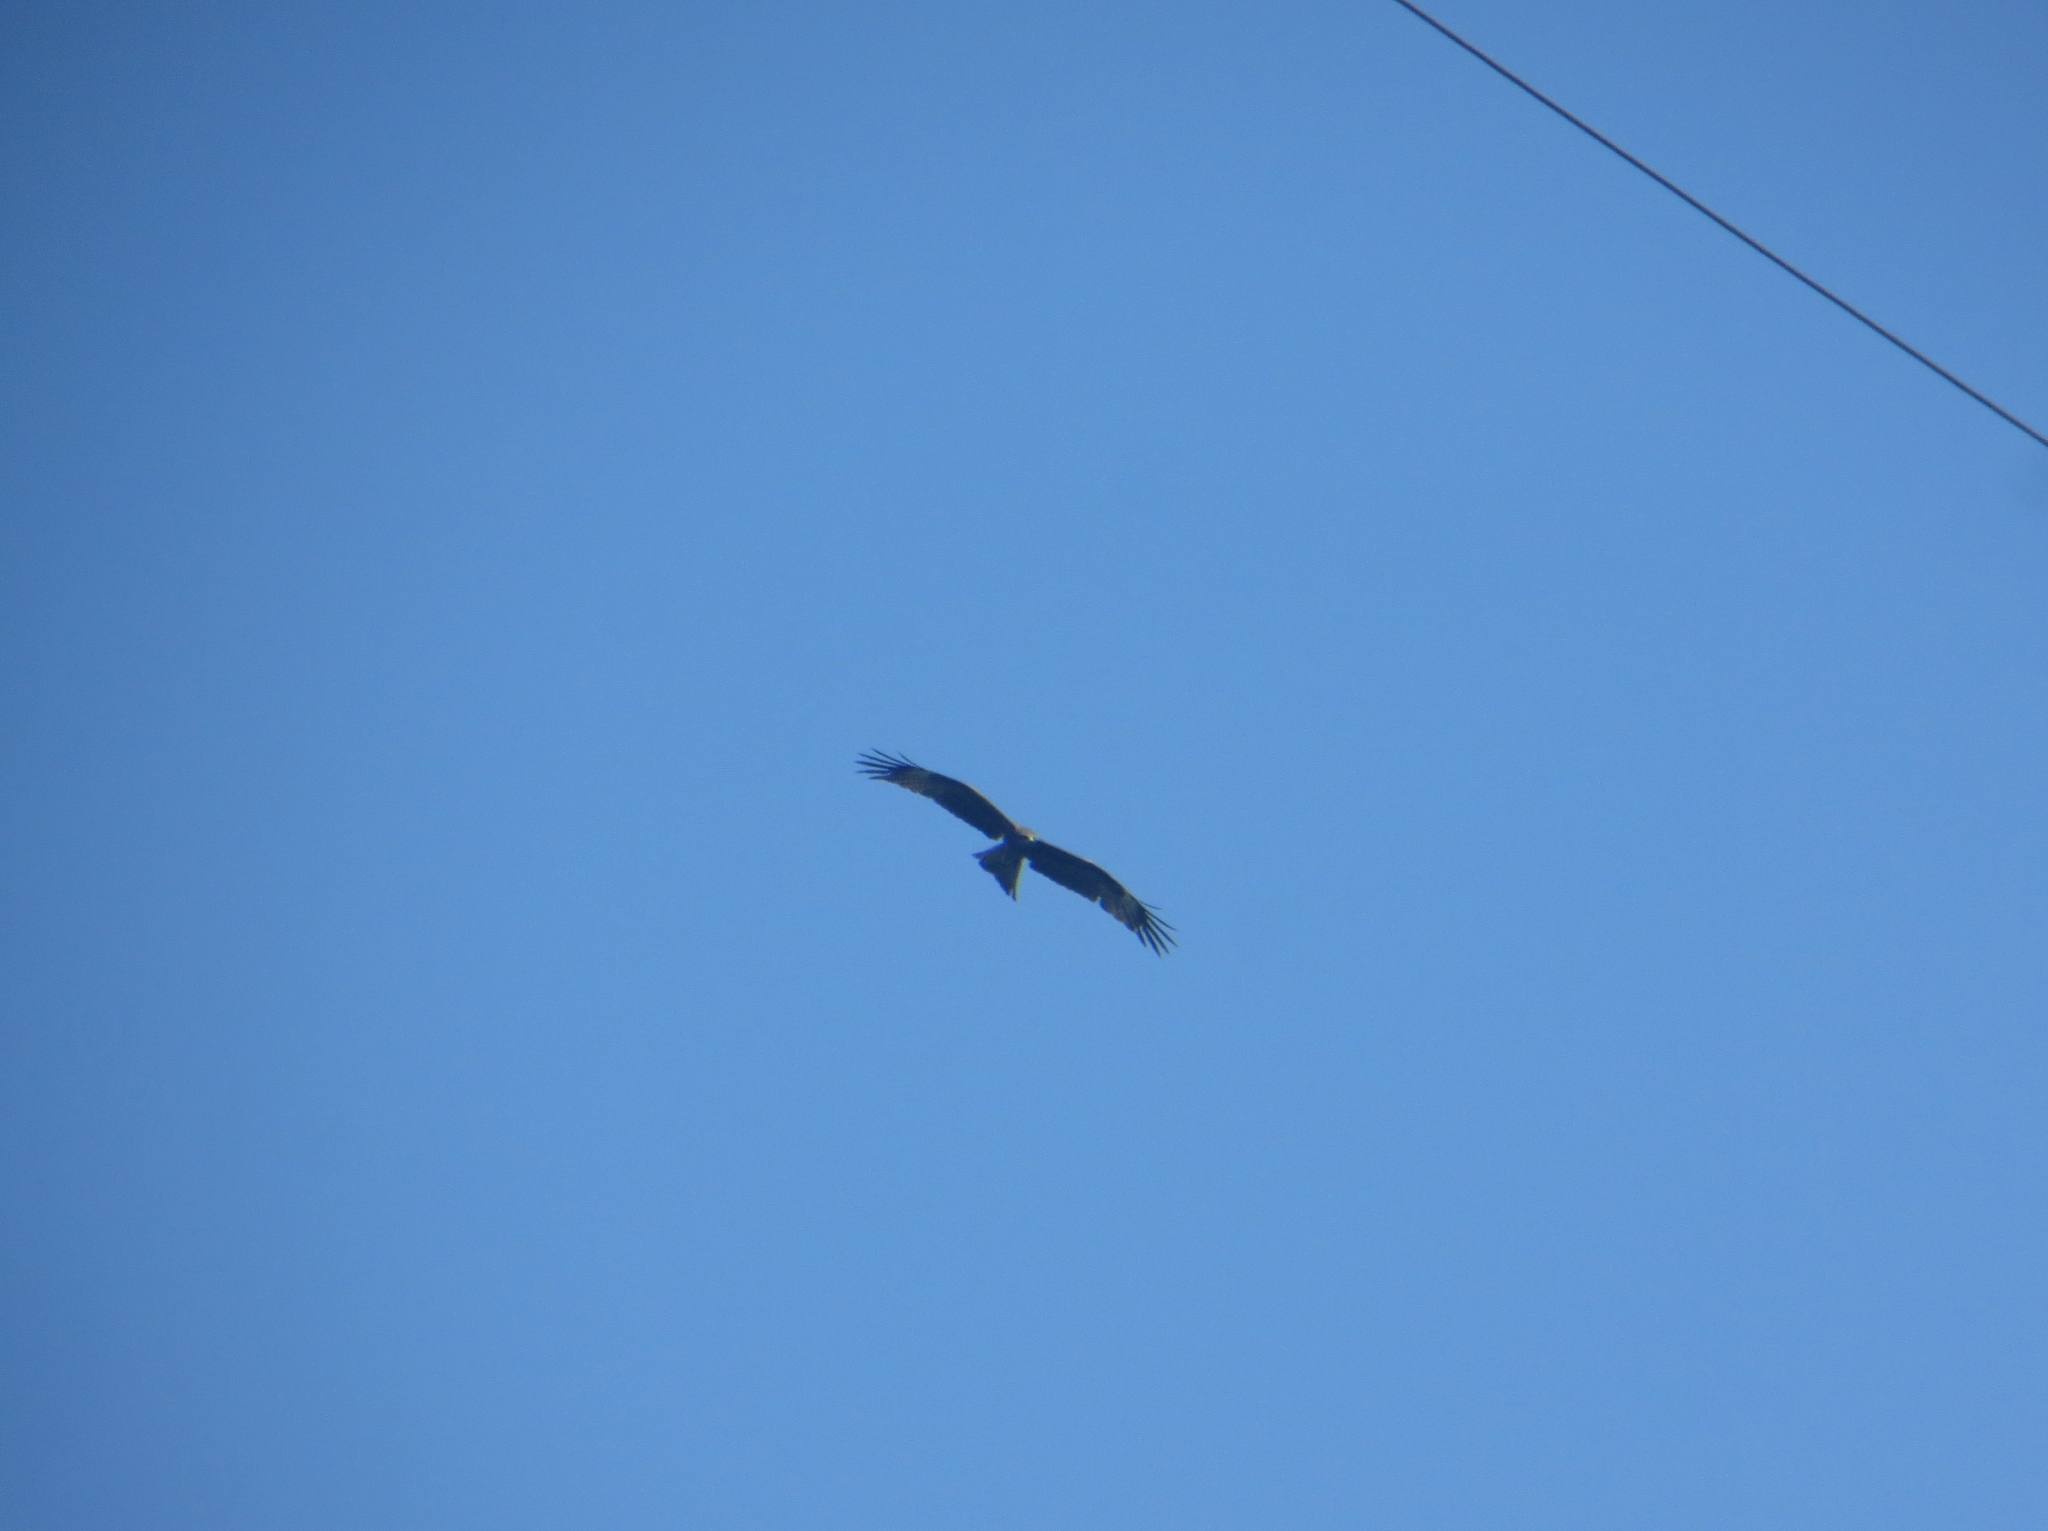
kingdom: Animalia
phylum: Chordata
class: Aves
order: Accipitriformes
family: Accipitridae
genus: Milvus
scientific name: Milvus migrans
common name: Black kite
